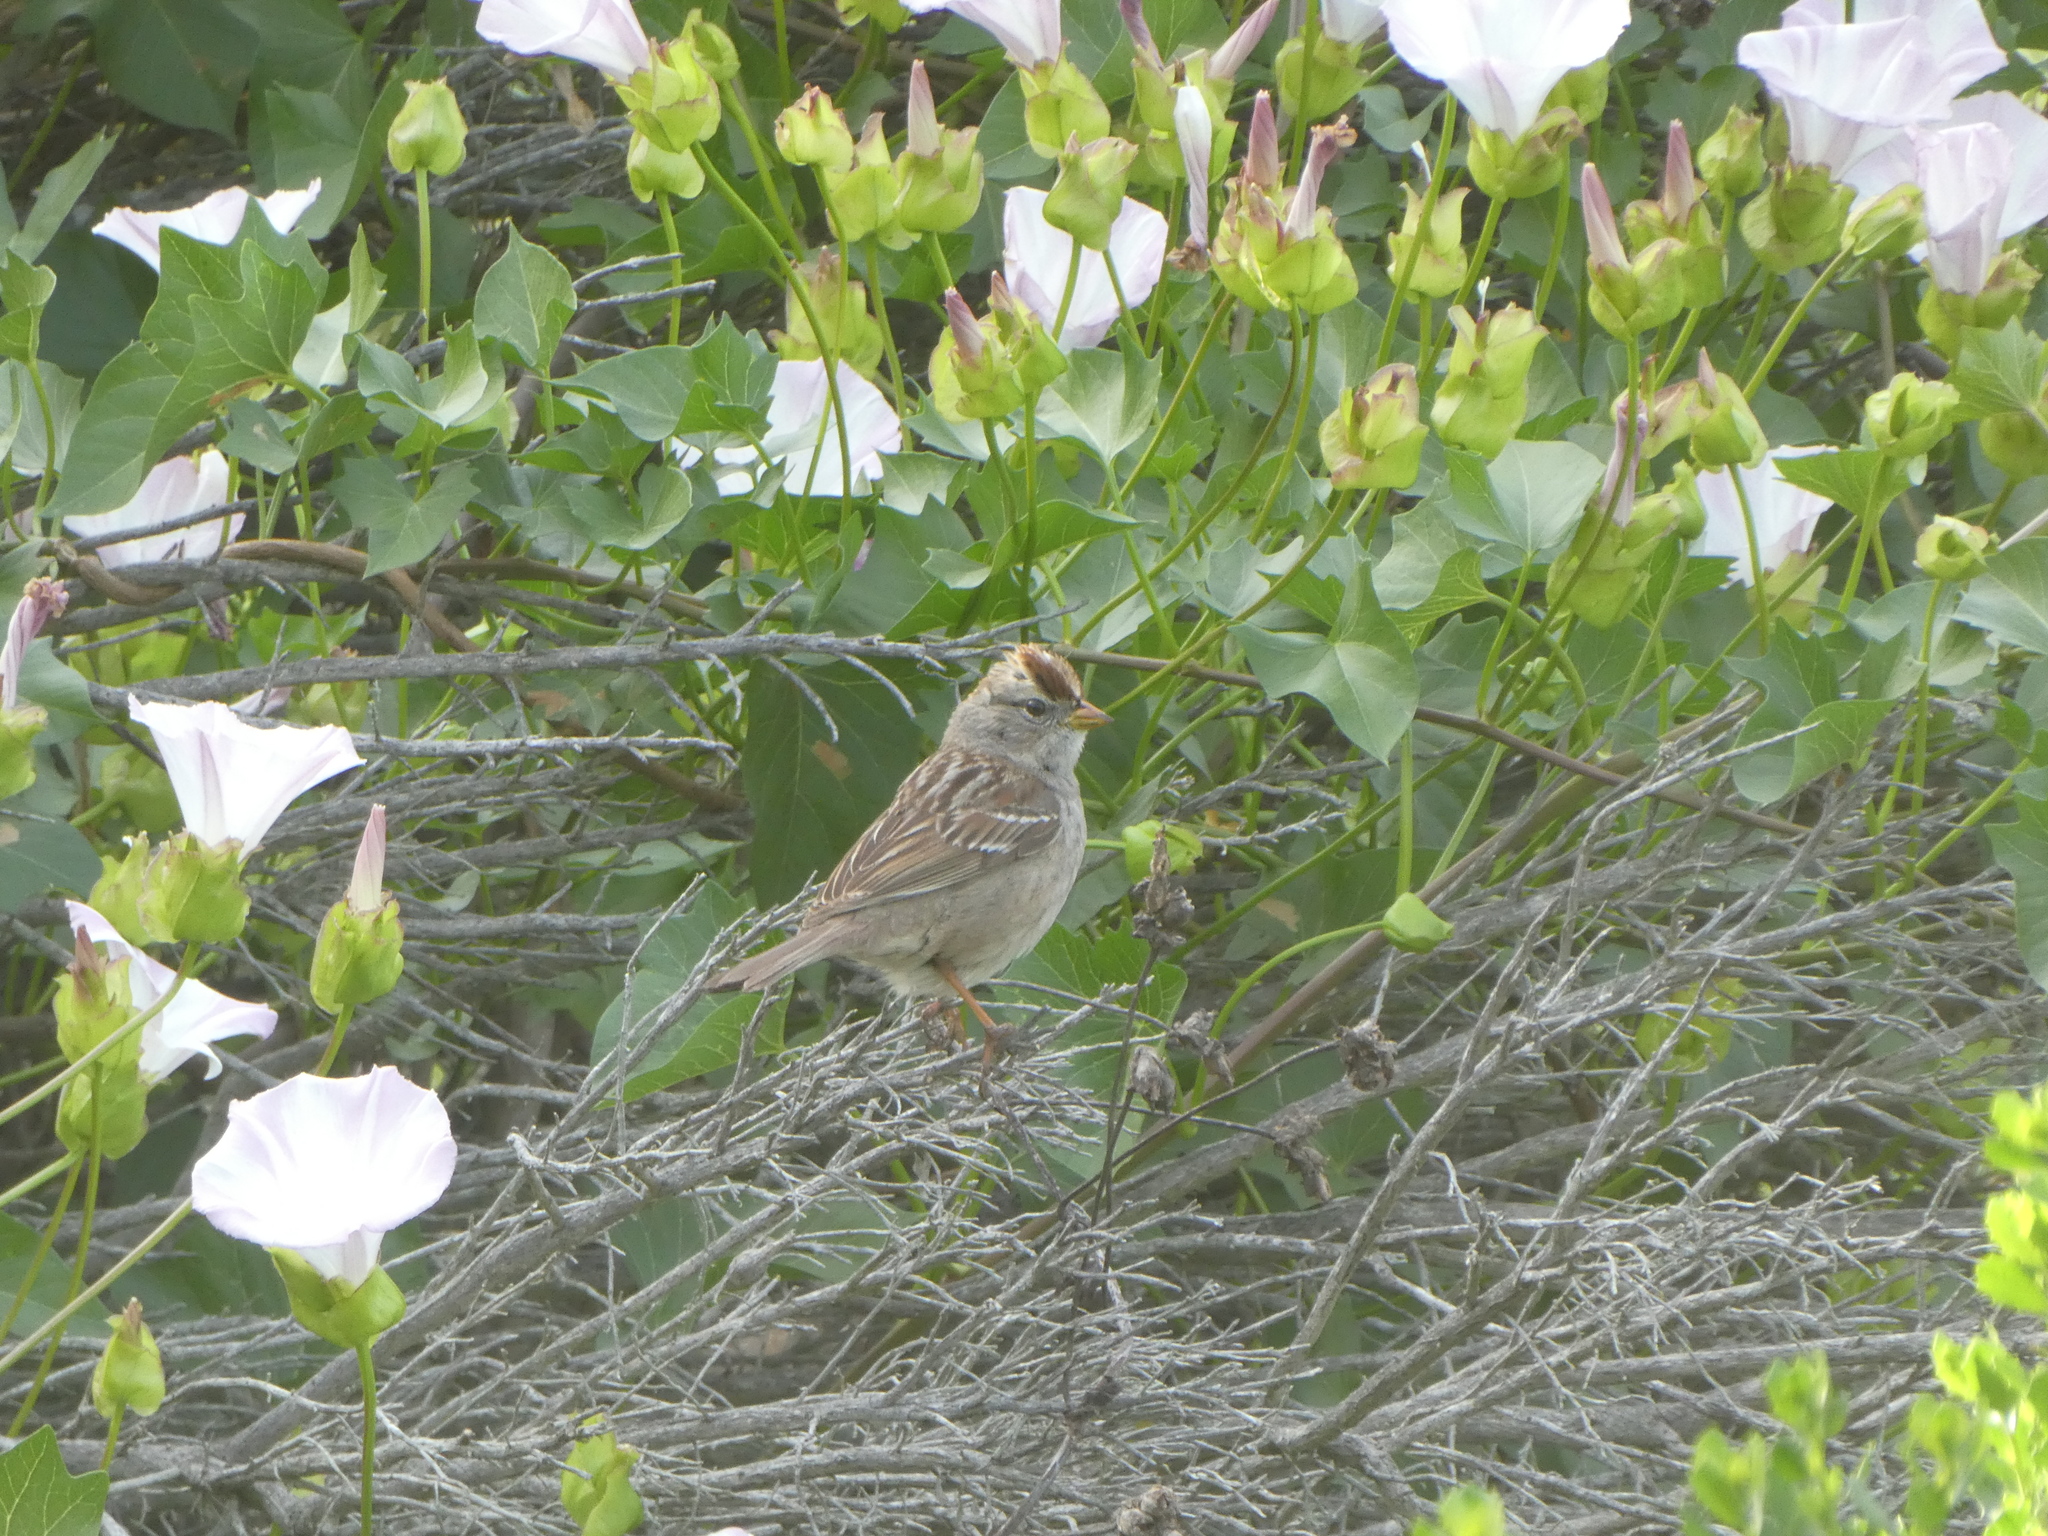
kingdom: Animalia
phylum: Chordata
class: Aves
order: Passeriformes
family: Passerellidae
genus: Zonotrichia
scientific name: Zonotrichia leucophrys
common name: White-crowned sparrow
